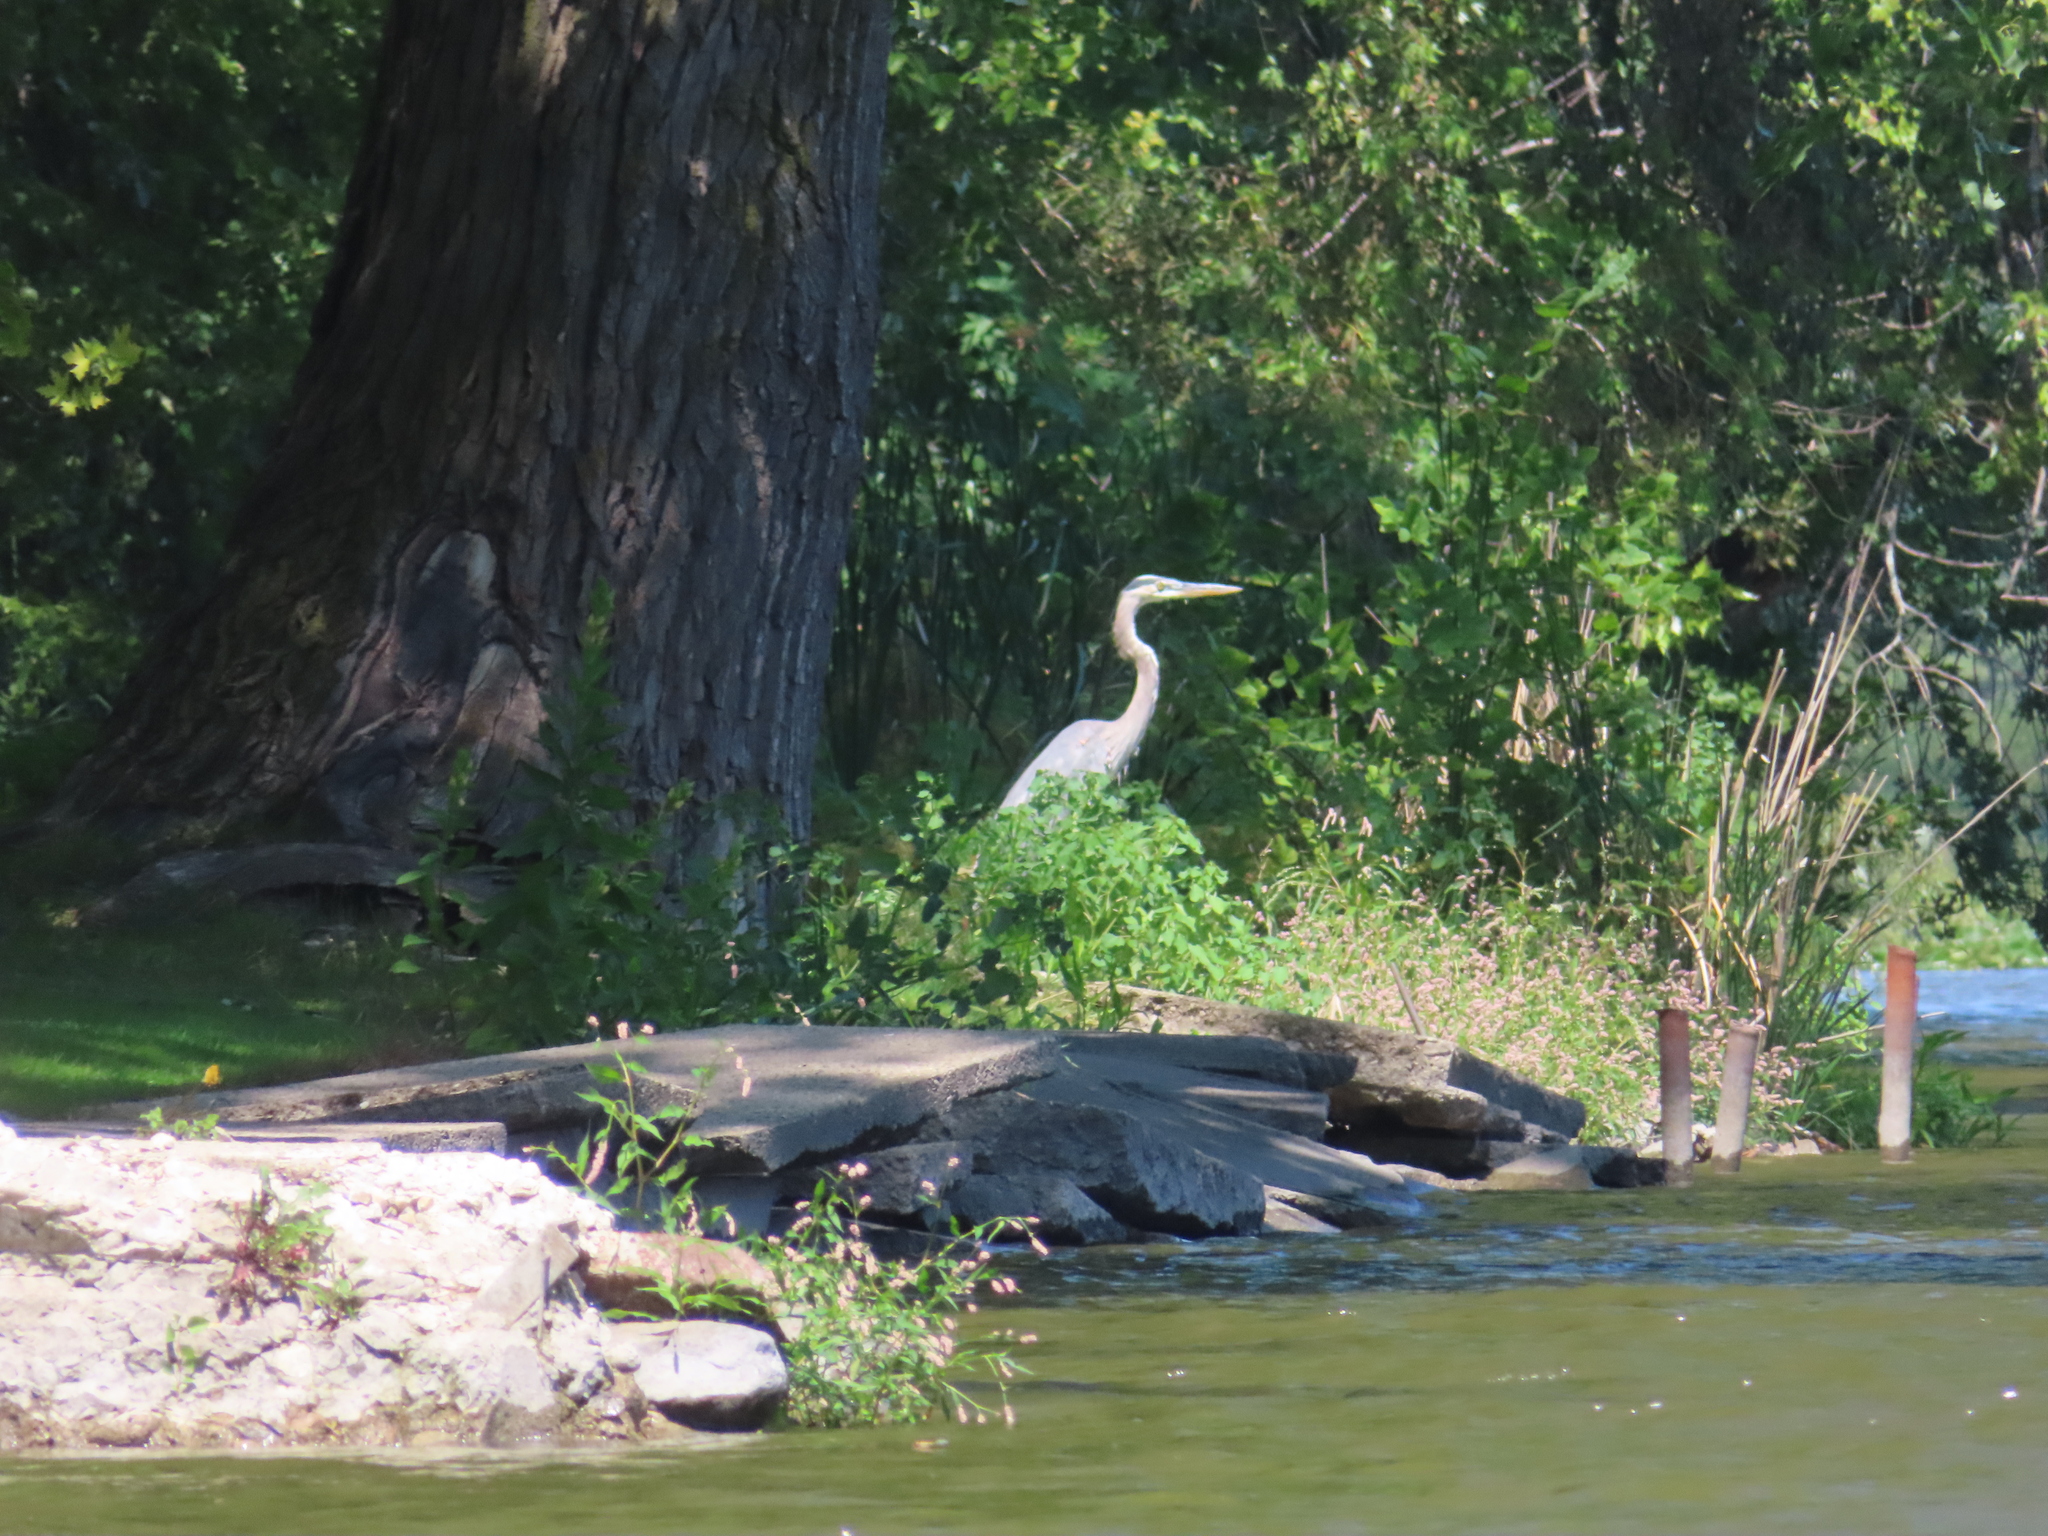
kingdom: Animalia
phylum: Chordata
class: Aves
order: Pelecaniformes
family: Ardeidae
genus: Ardea
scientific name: Ardea herodias
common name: Great blue heron
